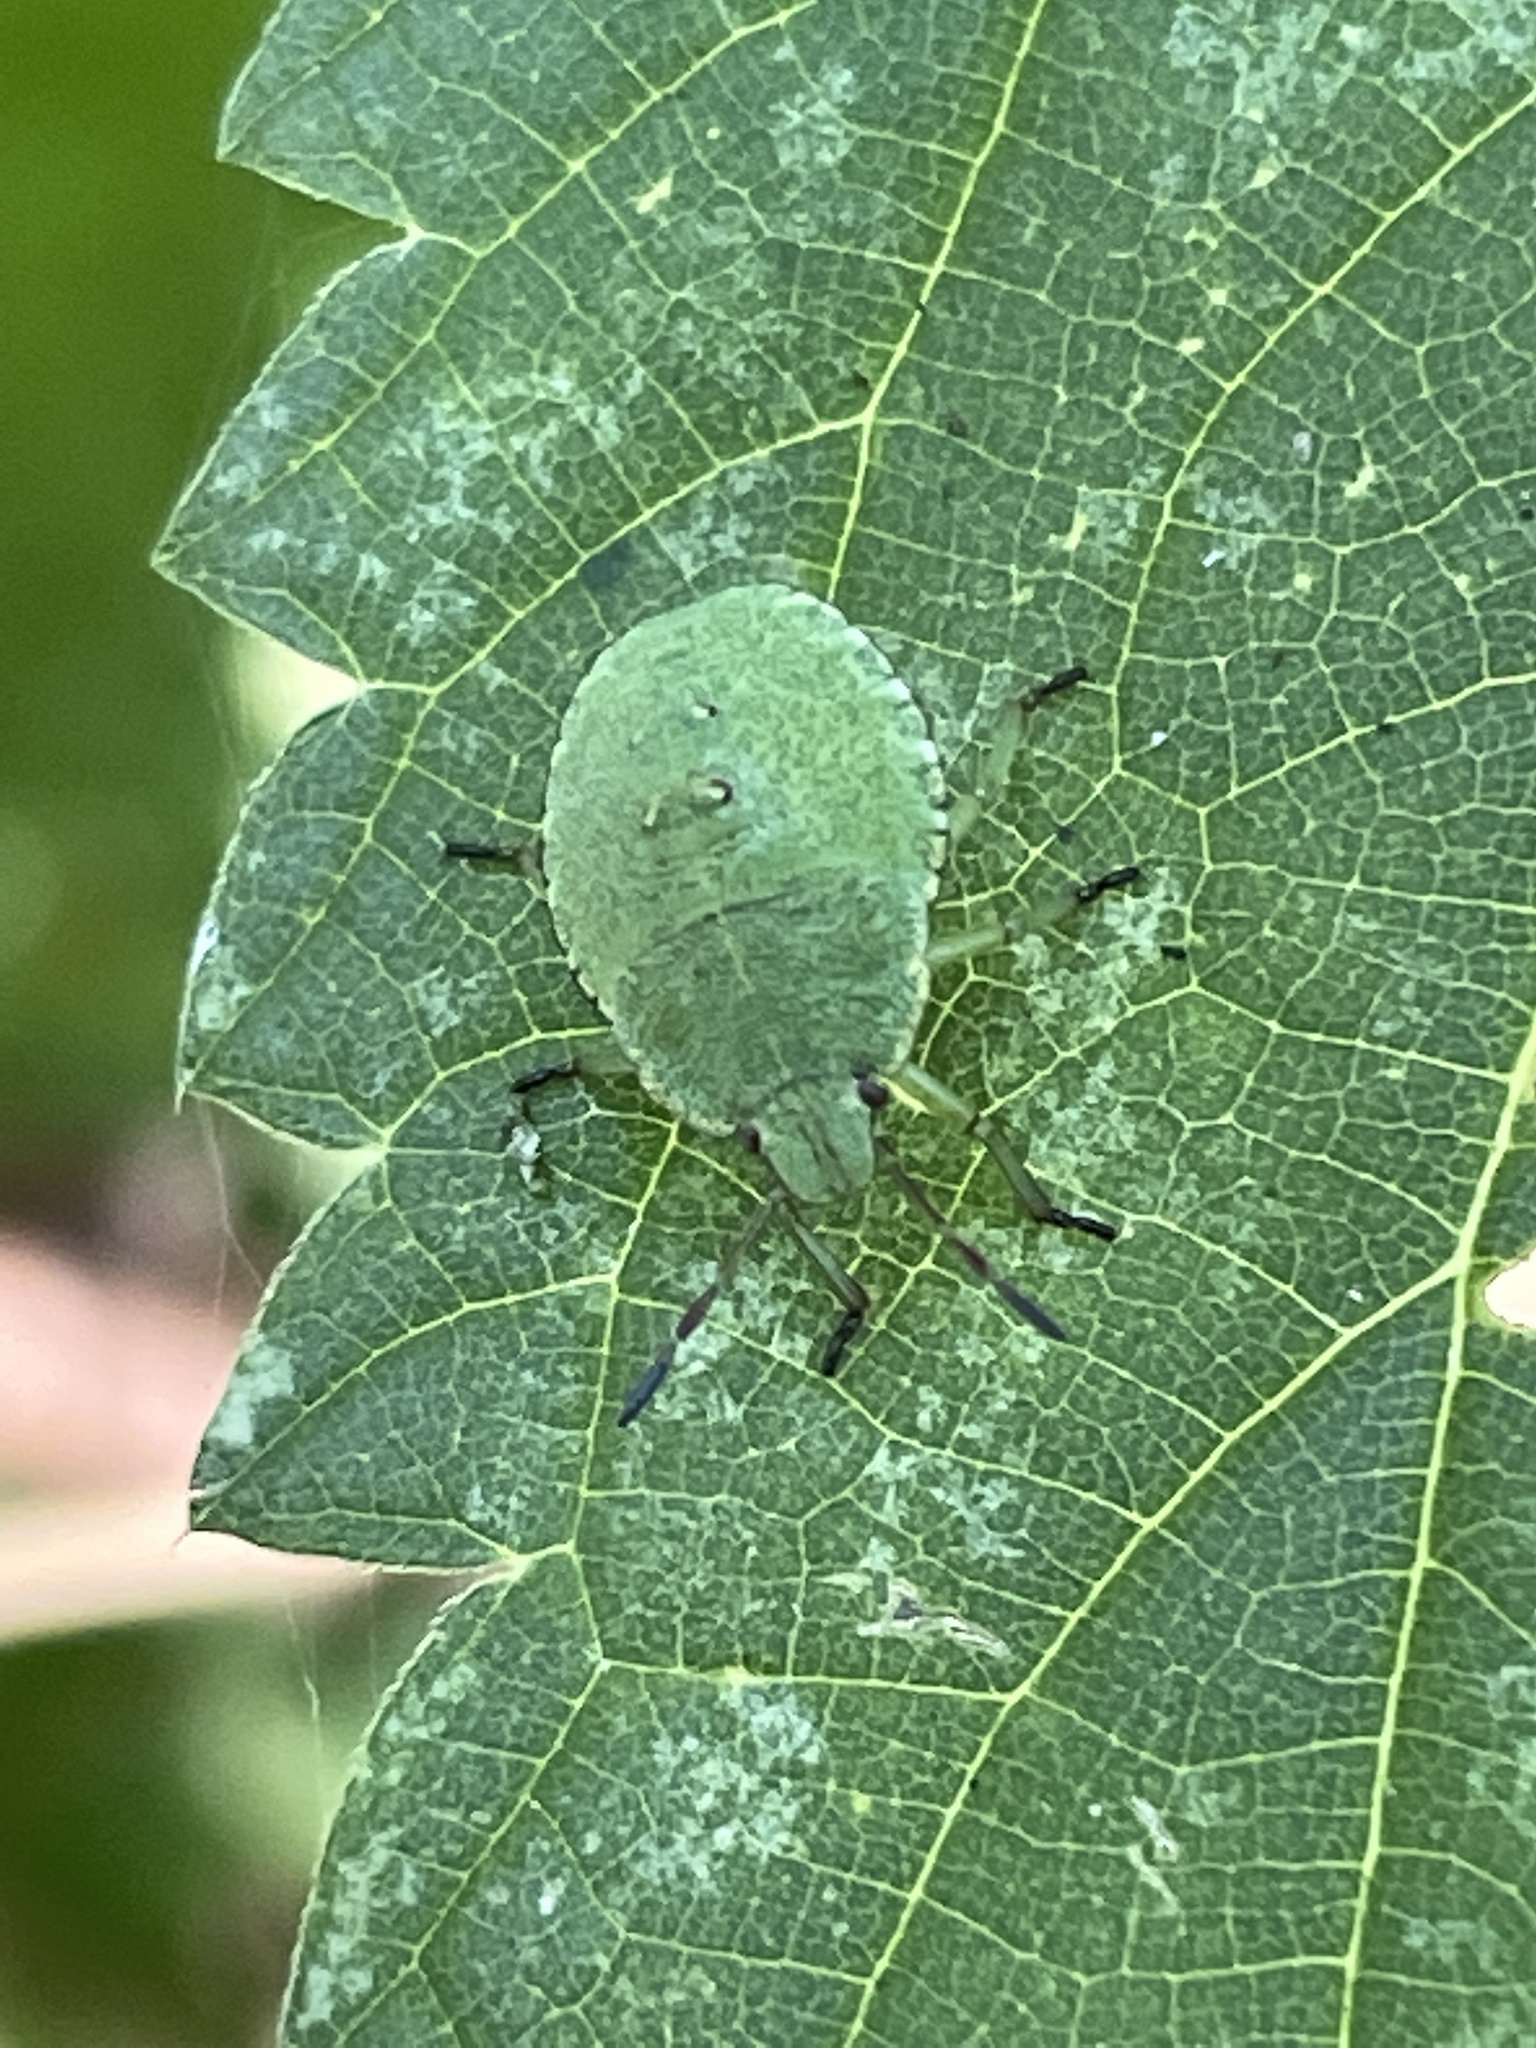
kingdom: Animalia
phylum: Arthropoda
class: Insecta
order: Hemiptera
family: Pentatomidae
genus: Palomena
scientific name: Palomena prasina
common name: Green shieldbug
